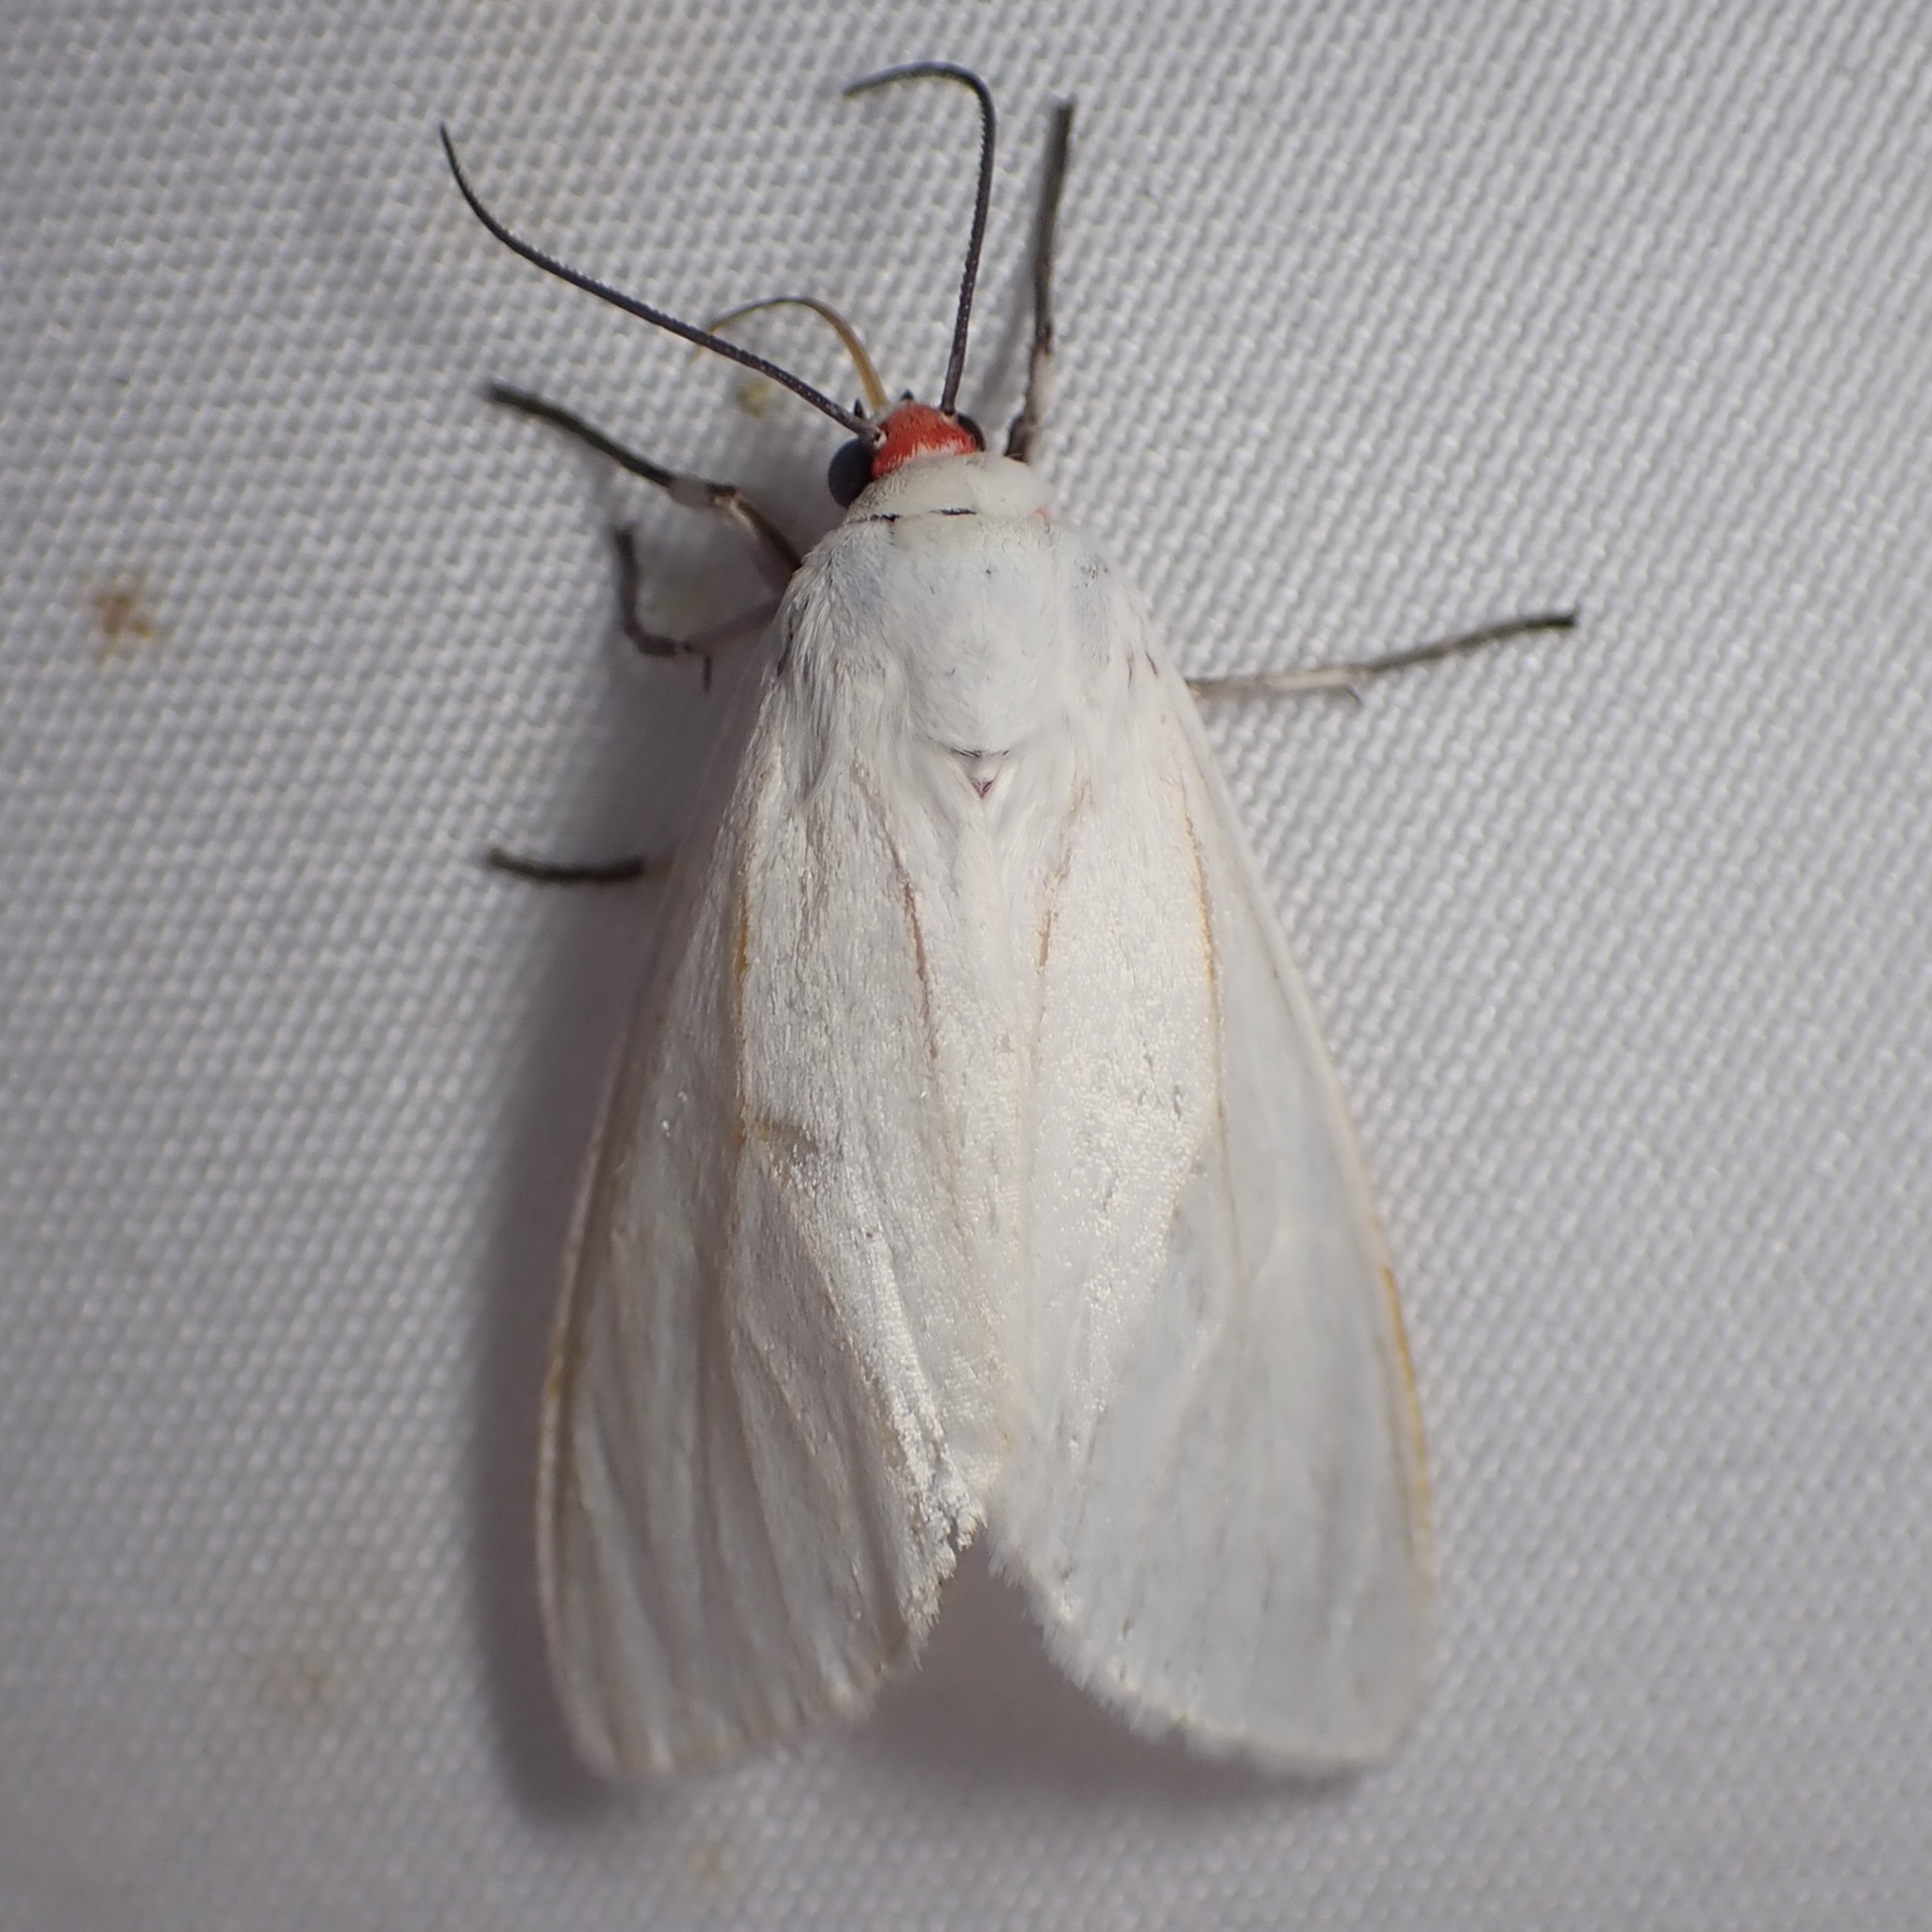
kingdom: Animalia
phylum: Arthropoda
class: Insecta
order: Lepidoptera
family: Erebidae
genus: Pygarctia
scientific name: Pygarctia roseicapitis
